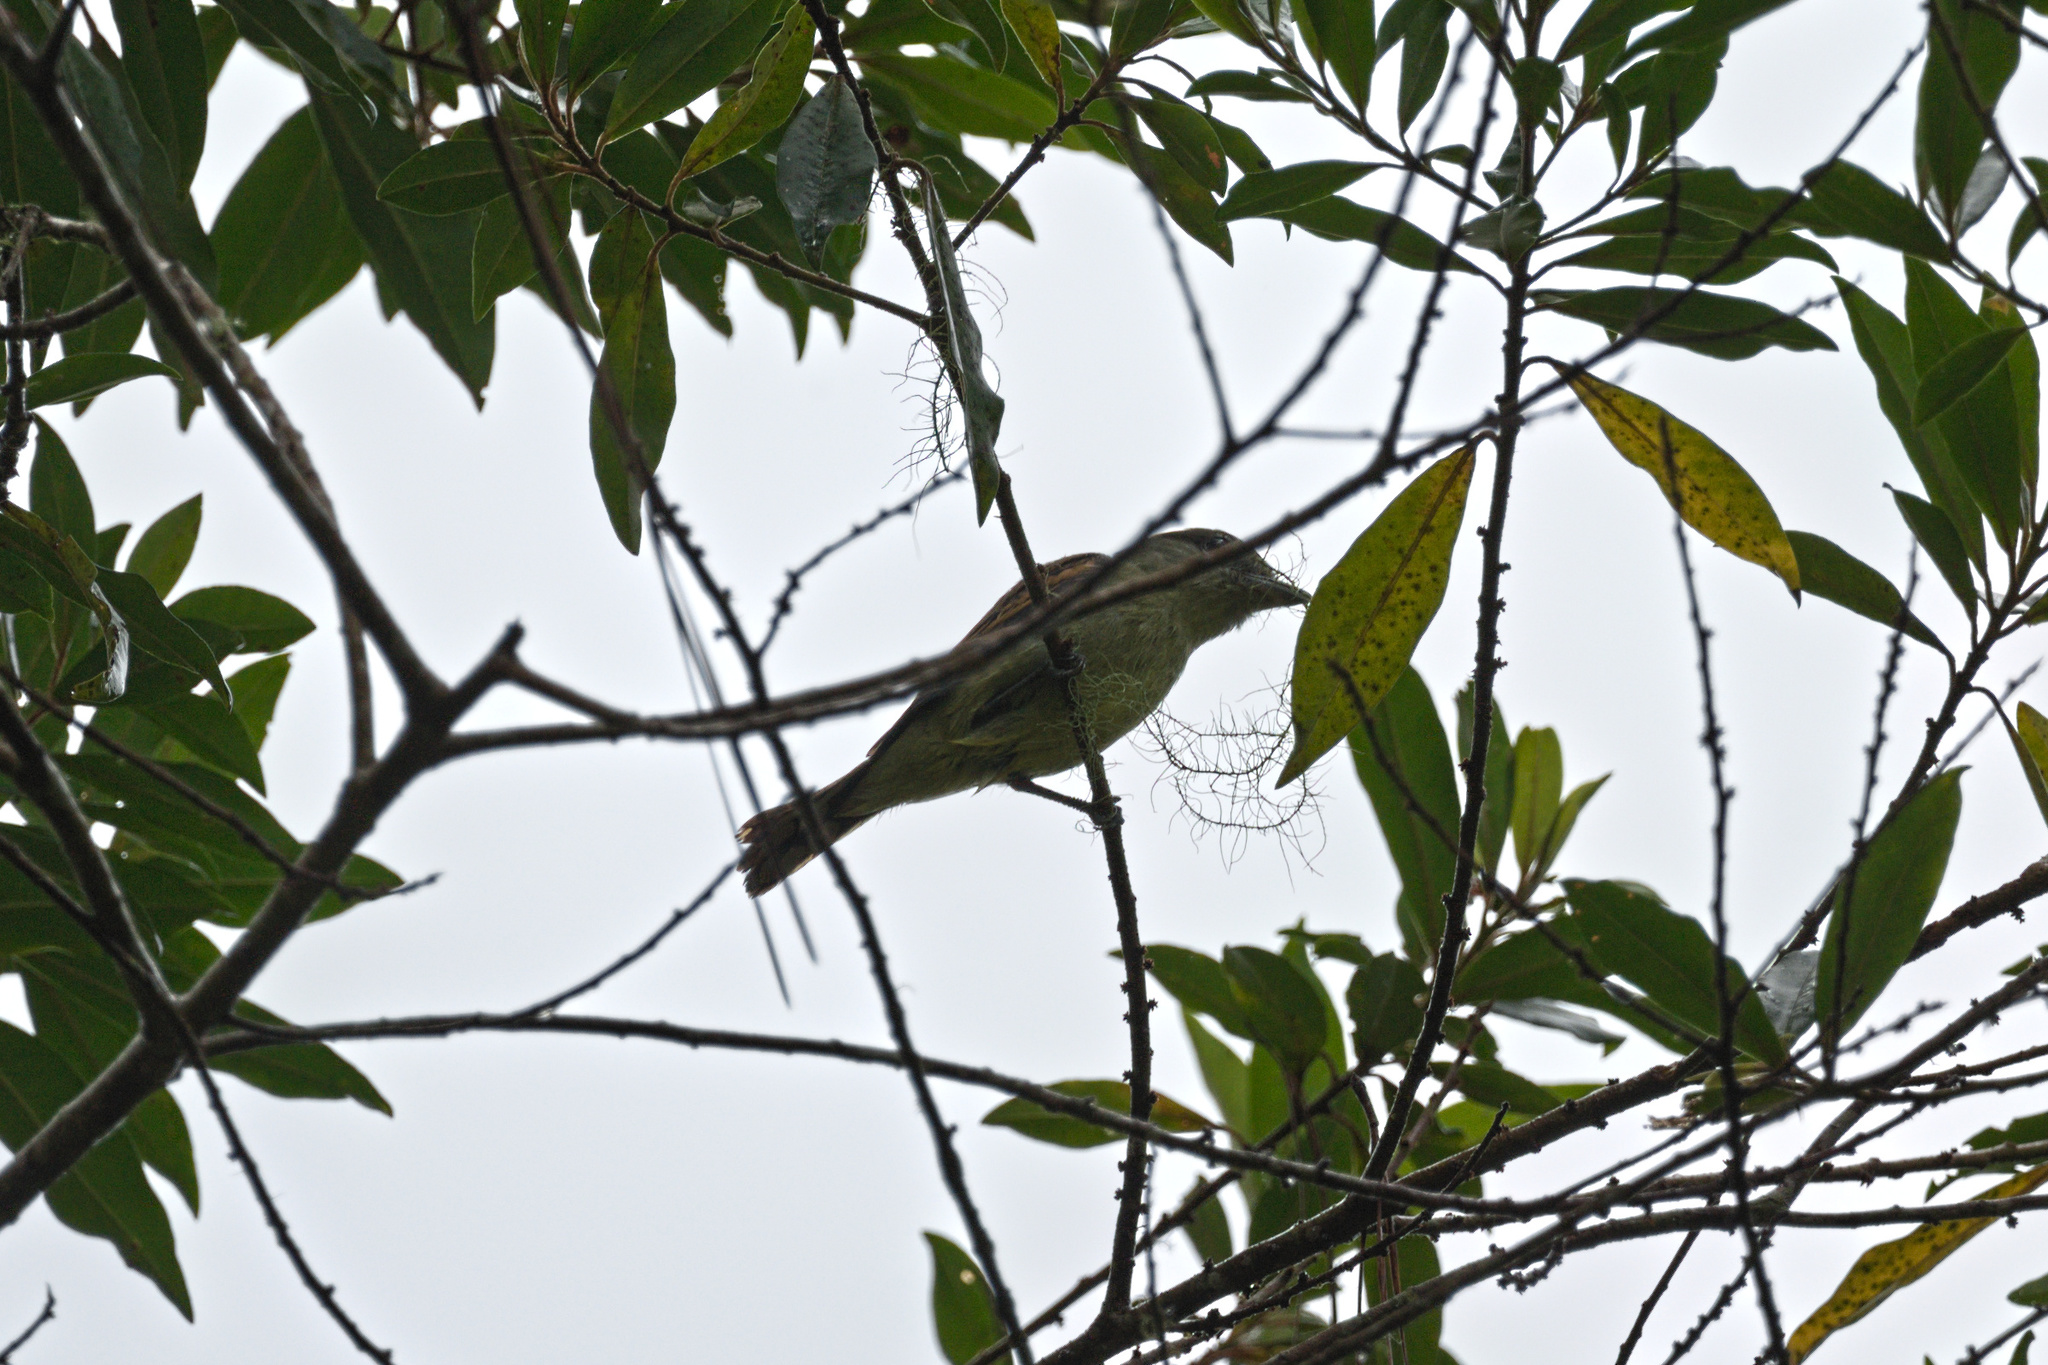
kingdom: Animalia
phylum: Chordata
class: Aves
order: Passeriformes
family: Cotingidae
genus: Pachyramphus
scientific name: Pachyramphus polychopterus
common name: White-winged becard
